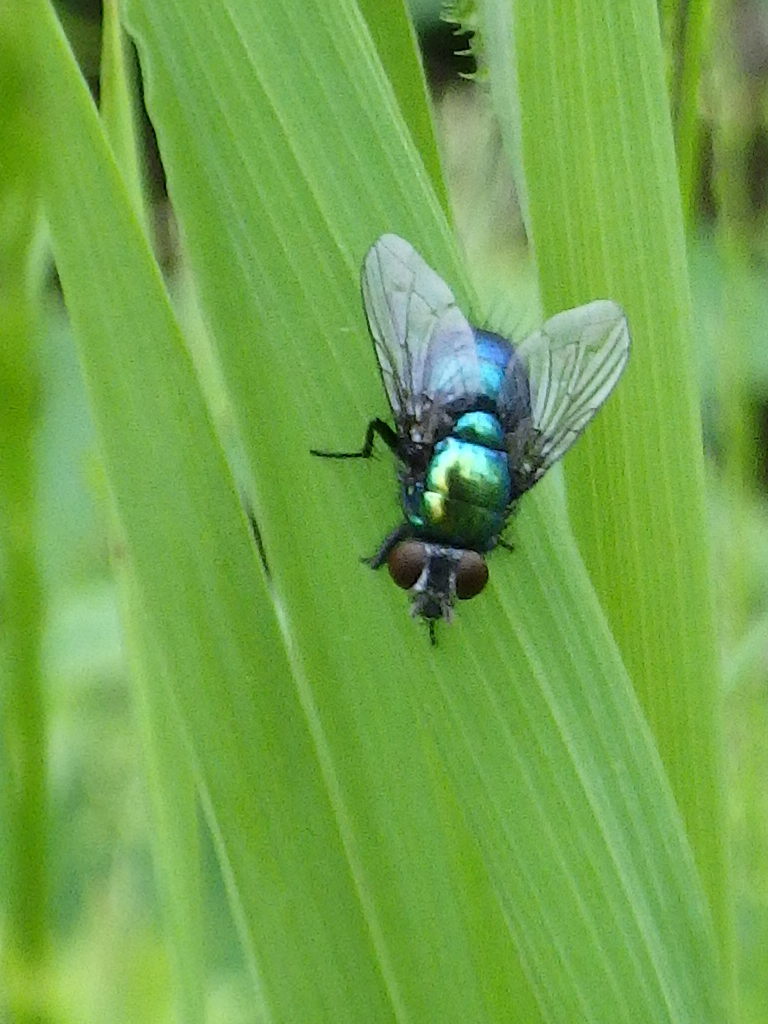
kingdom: Animalia
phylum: Arthropoda
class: Insecta
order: Diptera
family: Calliphoridae
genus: Lucilia
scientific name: Lucilia silvarum
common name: Marsh greenbottle
